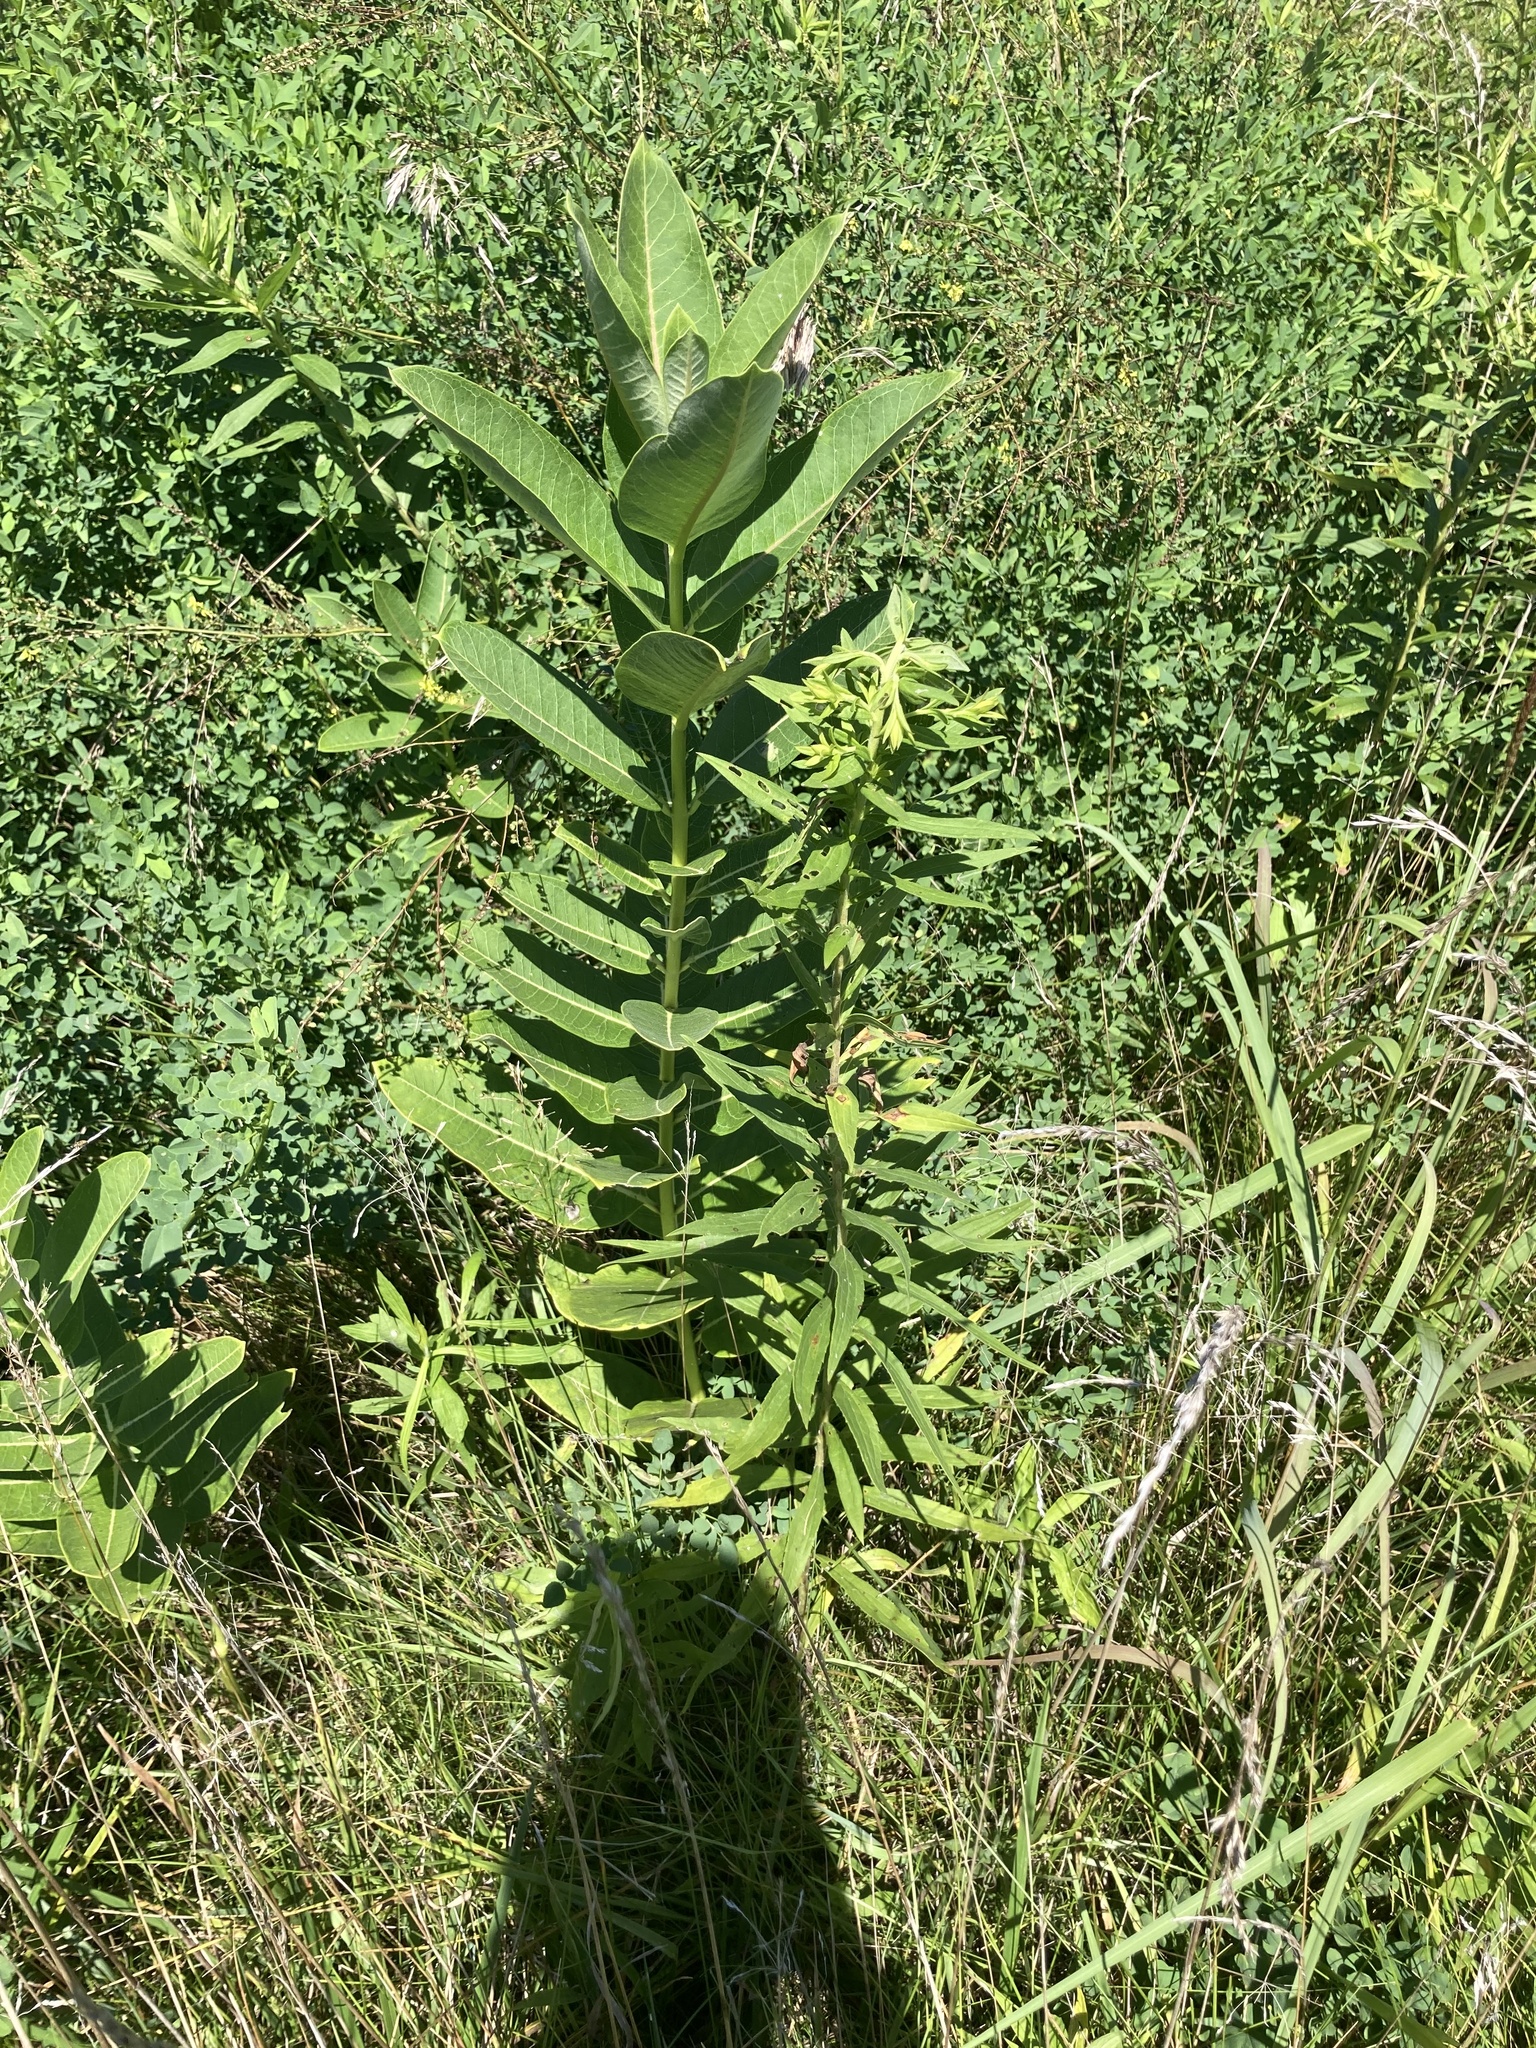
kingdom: Plantae
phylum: Tracheophyta
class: Magnoliopsida
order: Gentianales
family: Apocynaceae
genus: Asclepias
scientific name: Asclepias syriaca
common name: Common milkweed
